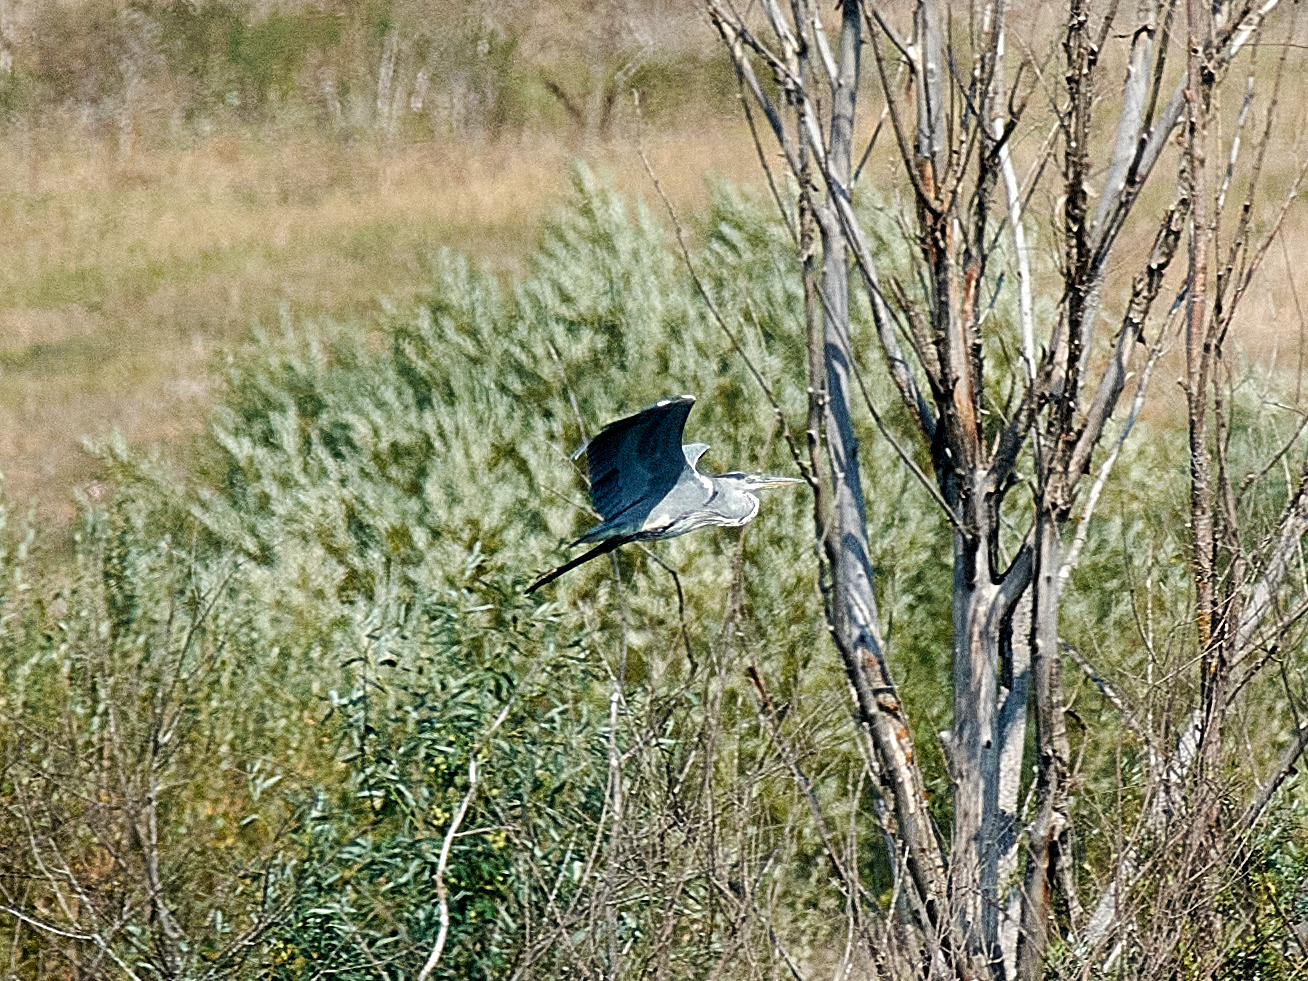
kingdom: Animalia
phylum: Chordata
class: Aves
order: Pelecaniformes
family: Ardeidae
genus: Ardea
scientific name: Ardea cinerea
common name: Grey heron
